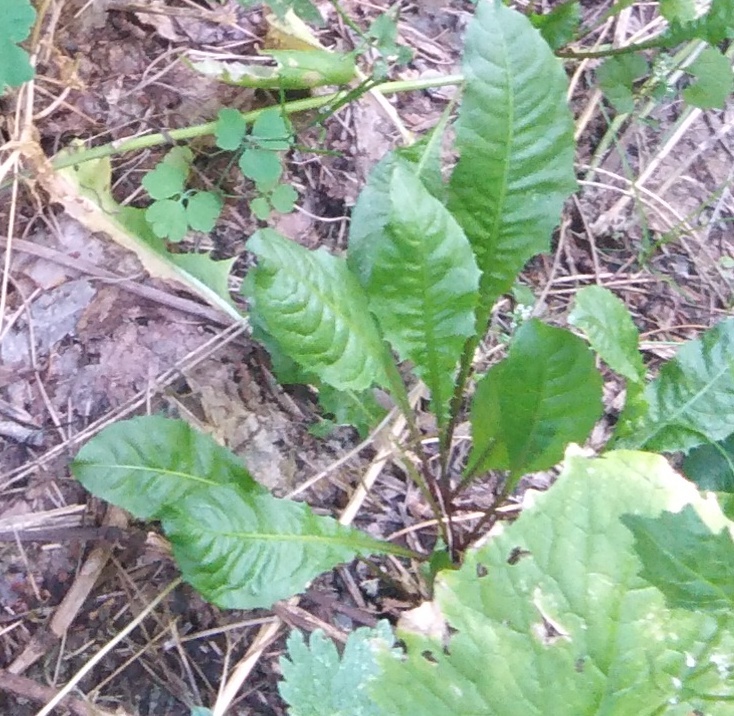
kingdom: Plantae
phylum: Tracheophyta
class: Magnoliopsida
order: Asterales
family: Asteraceae
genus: Taraxacum
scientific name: Taraxacum officinale
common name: Common dandelion
